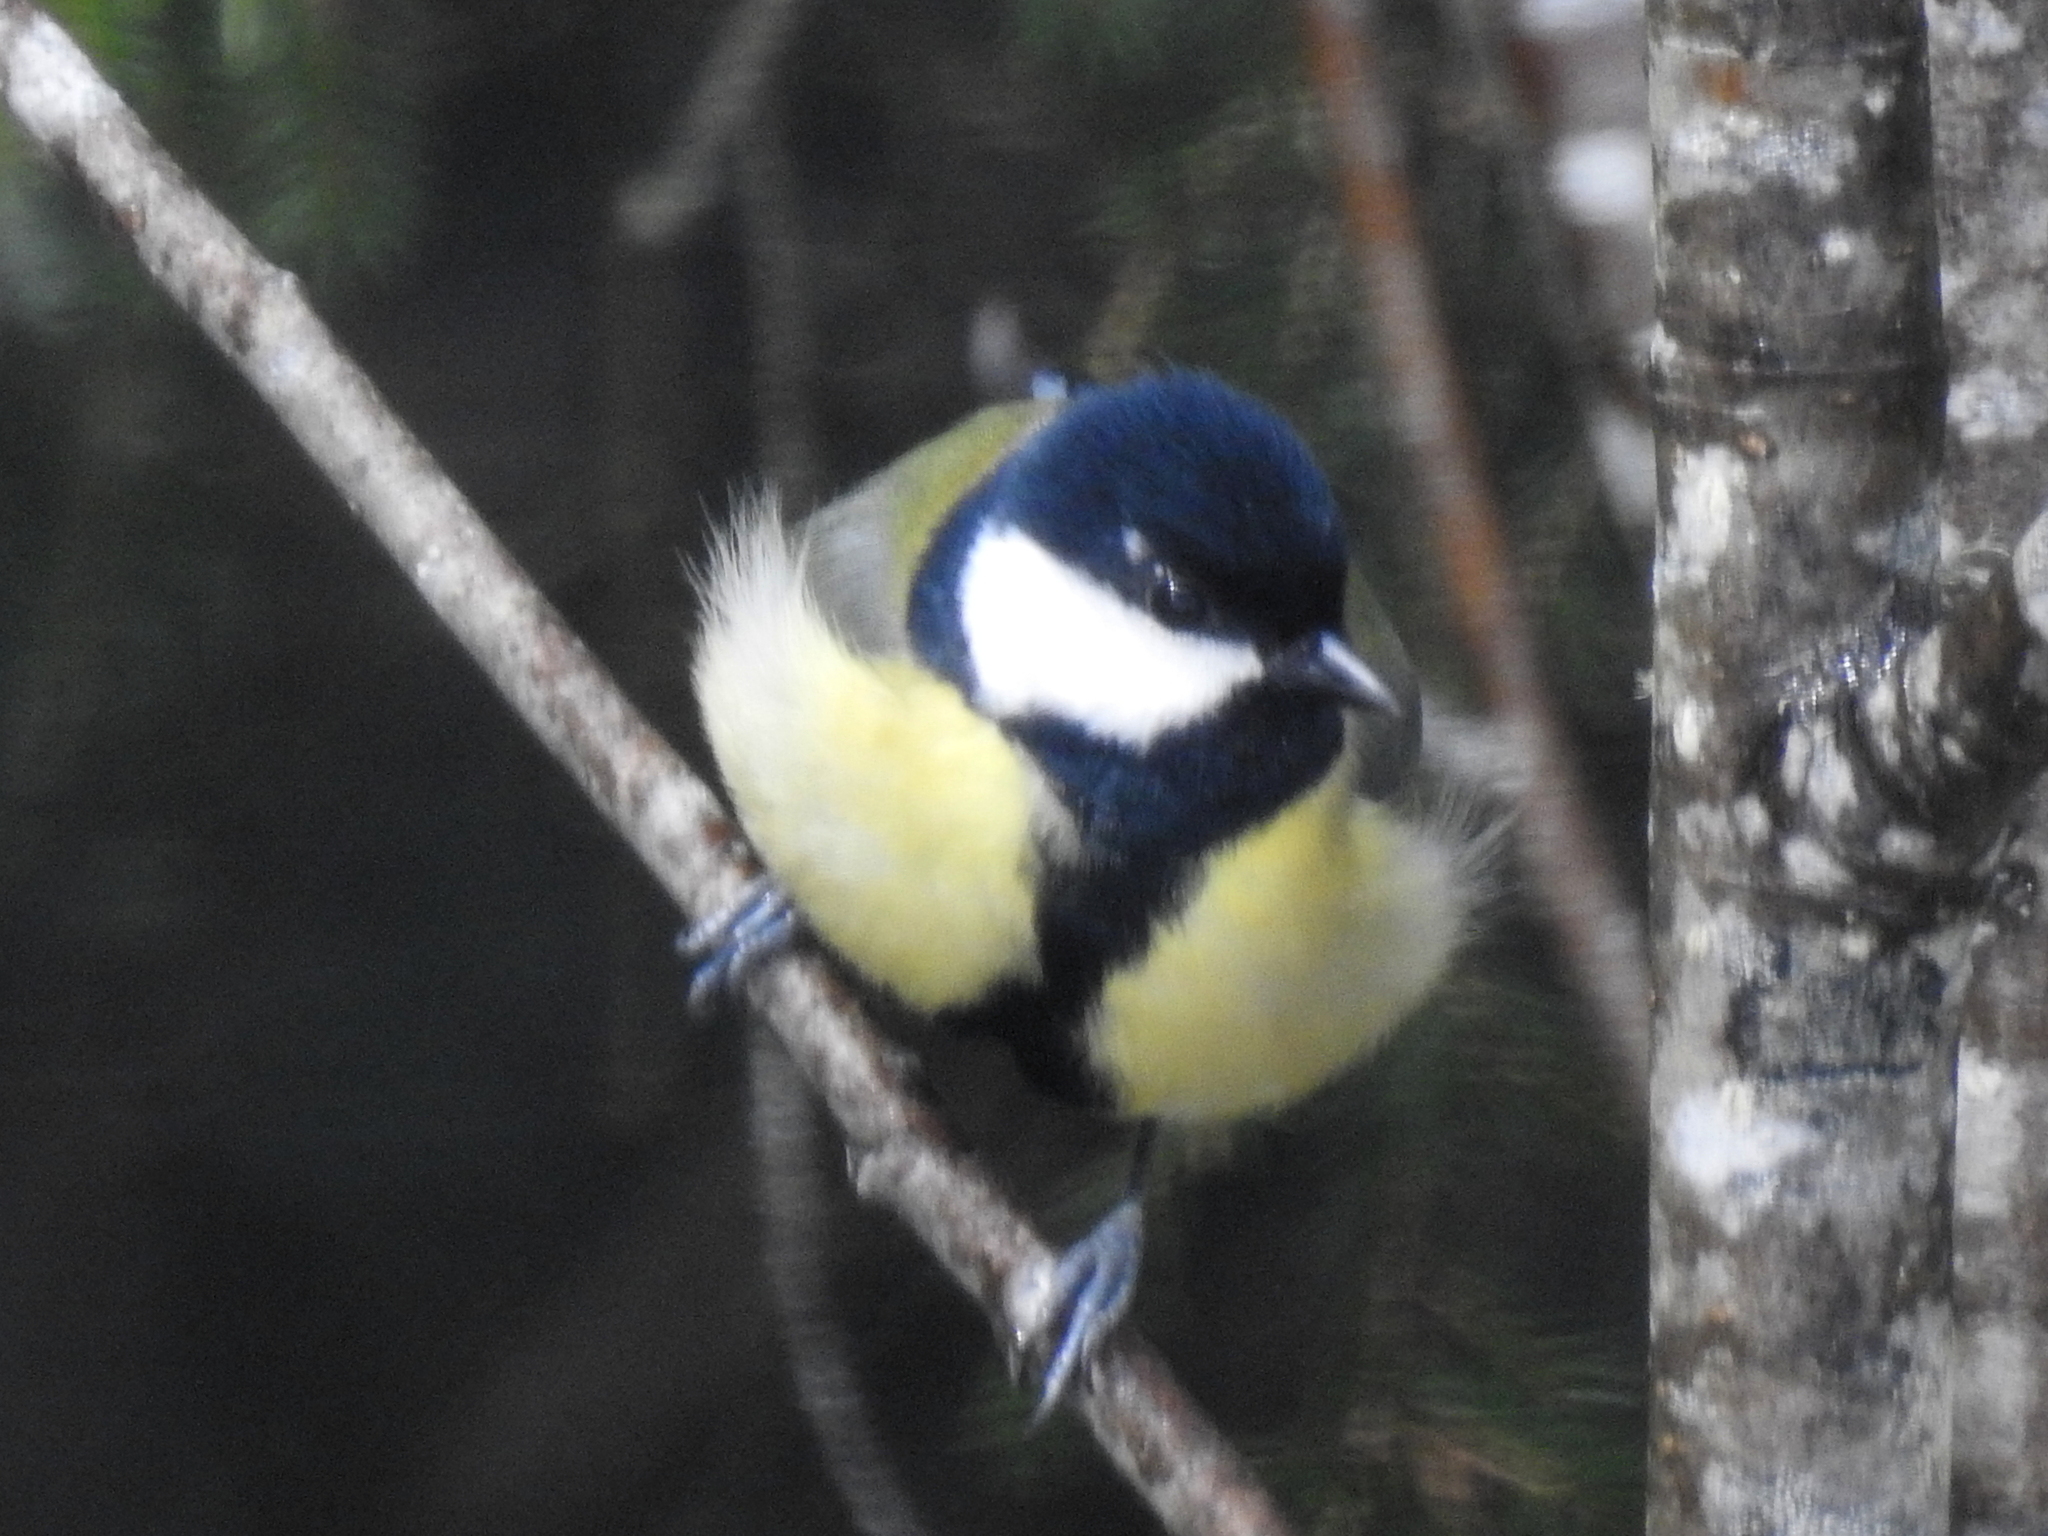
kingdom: Animalia
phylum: Chordata
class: Aves
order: Passeriformes
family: Paridae
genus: Parus
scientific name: Parus major
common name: Great tit
